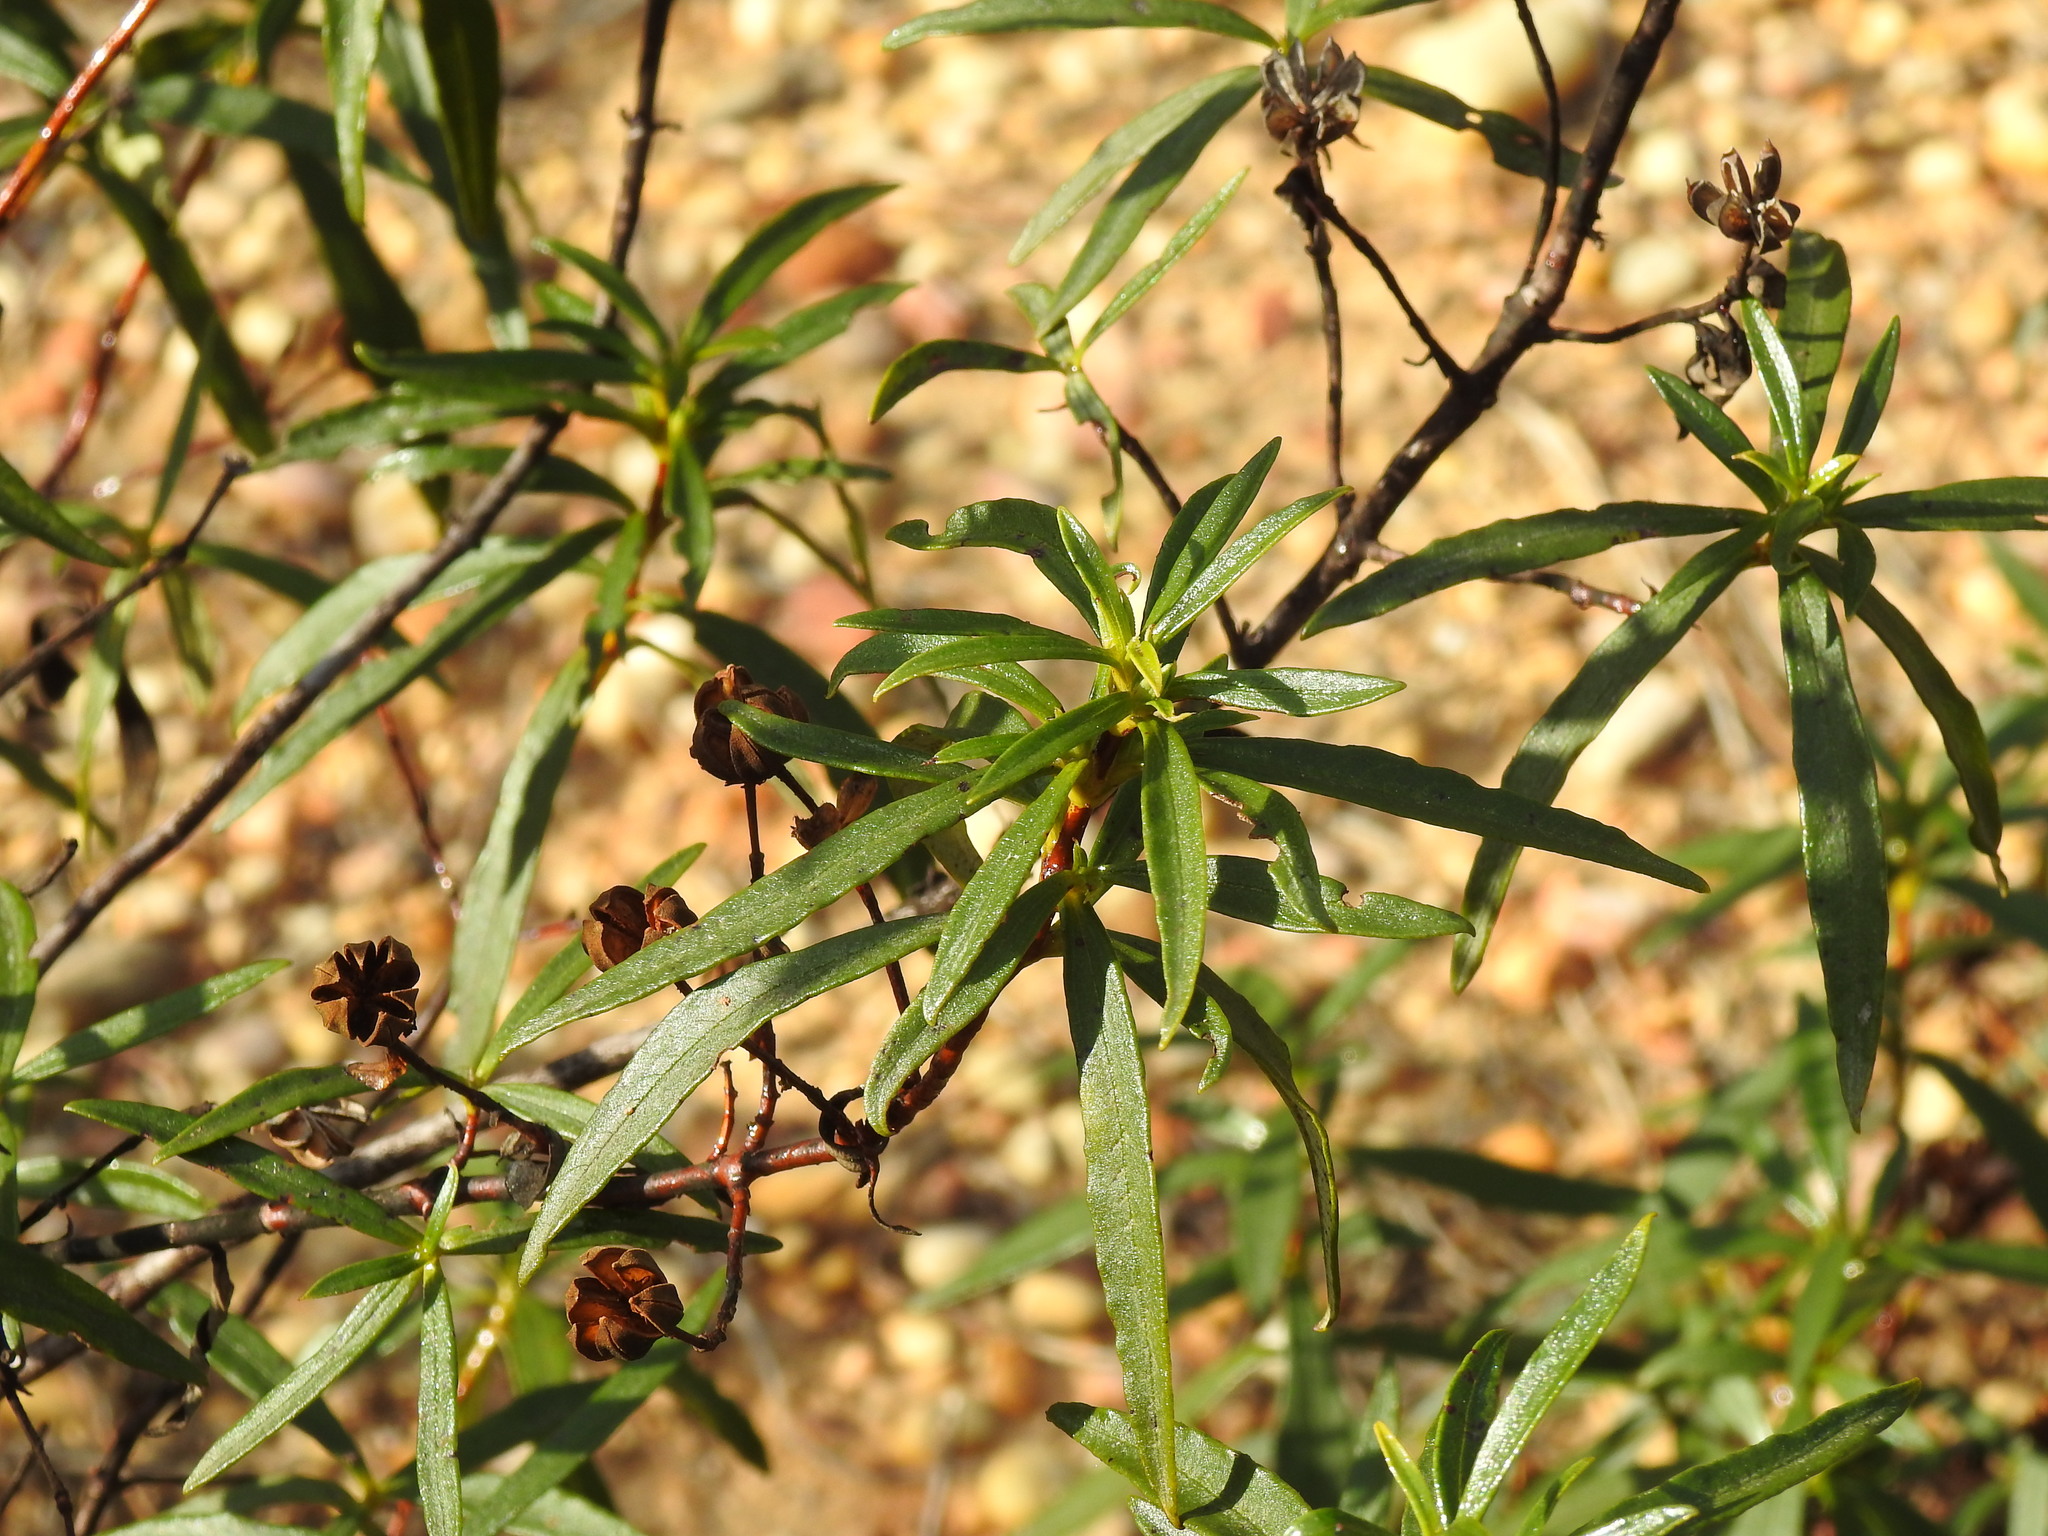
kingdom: Plantae
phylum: Tracheophyta
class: Magnoliopsida
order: Malvales
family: Cistaceae
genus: Cistus
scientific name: Cistus ladanifer
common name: Common gum cistus
